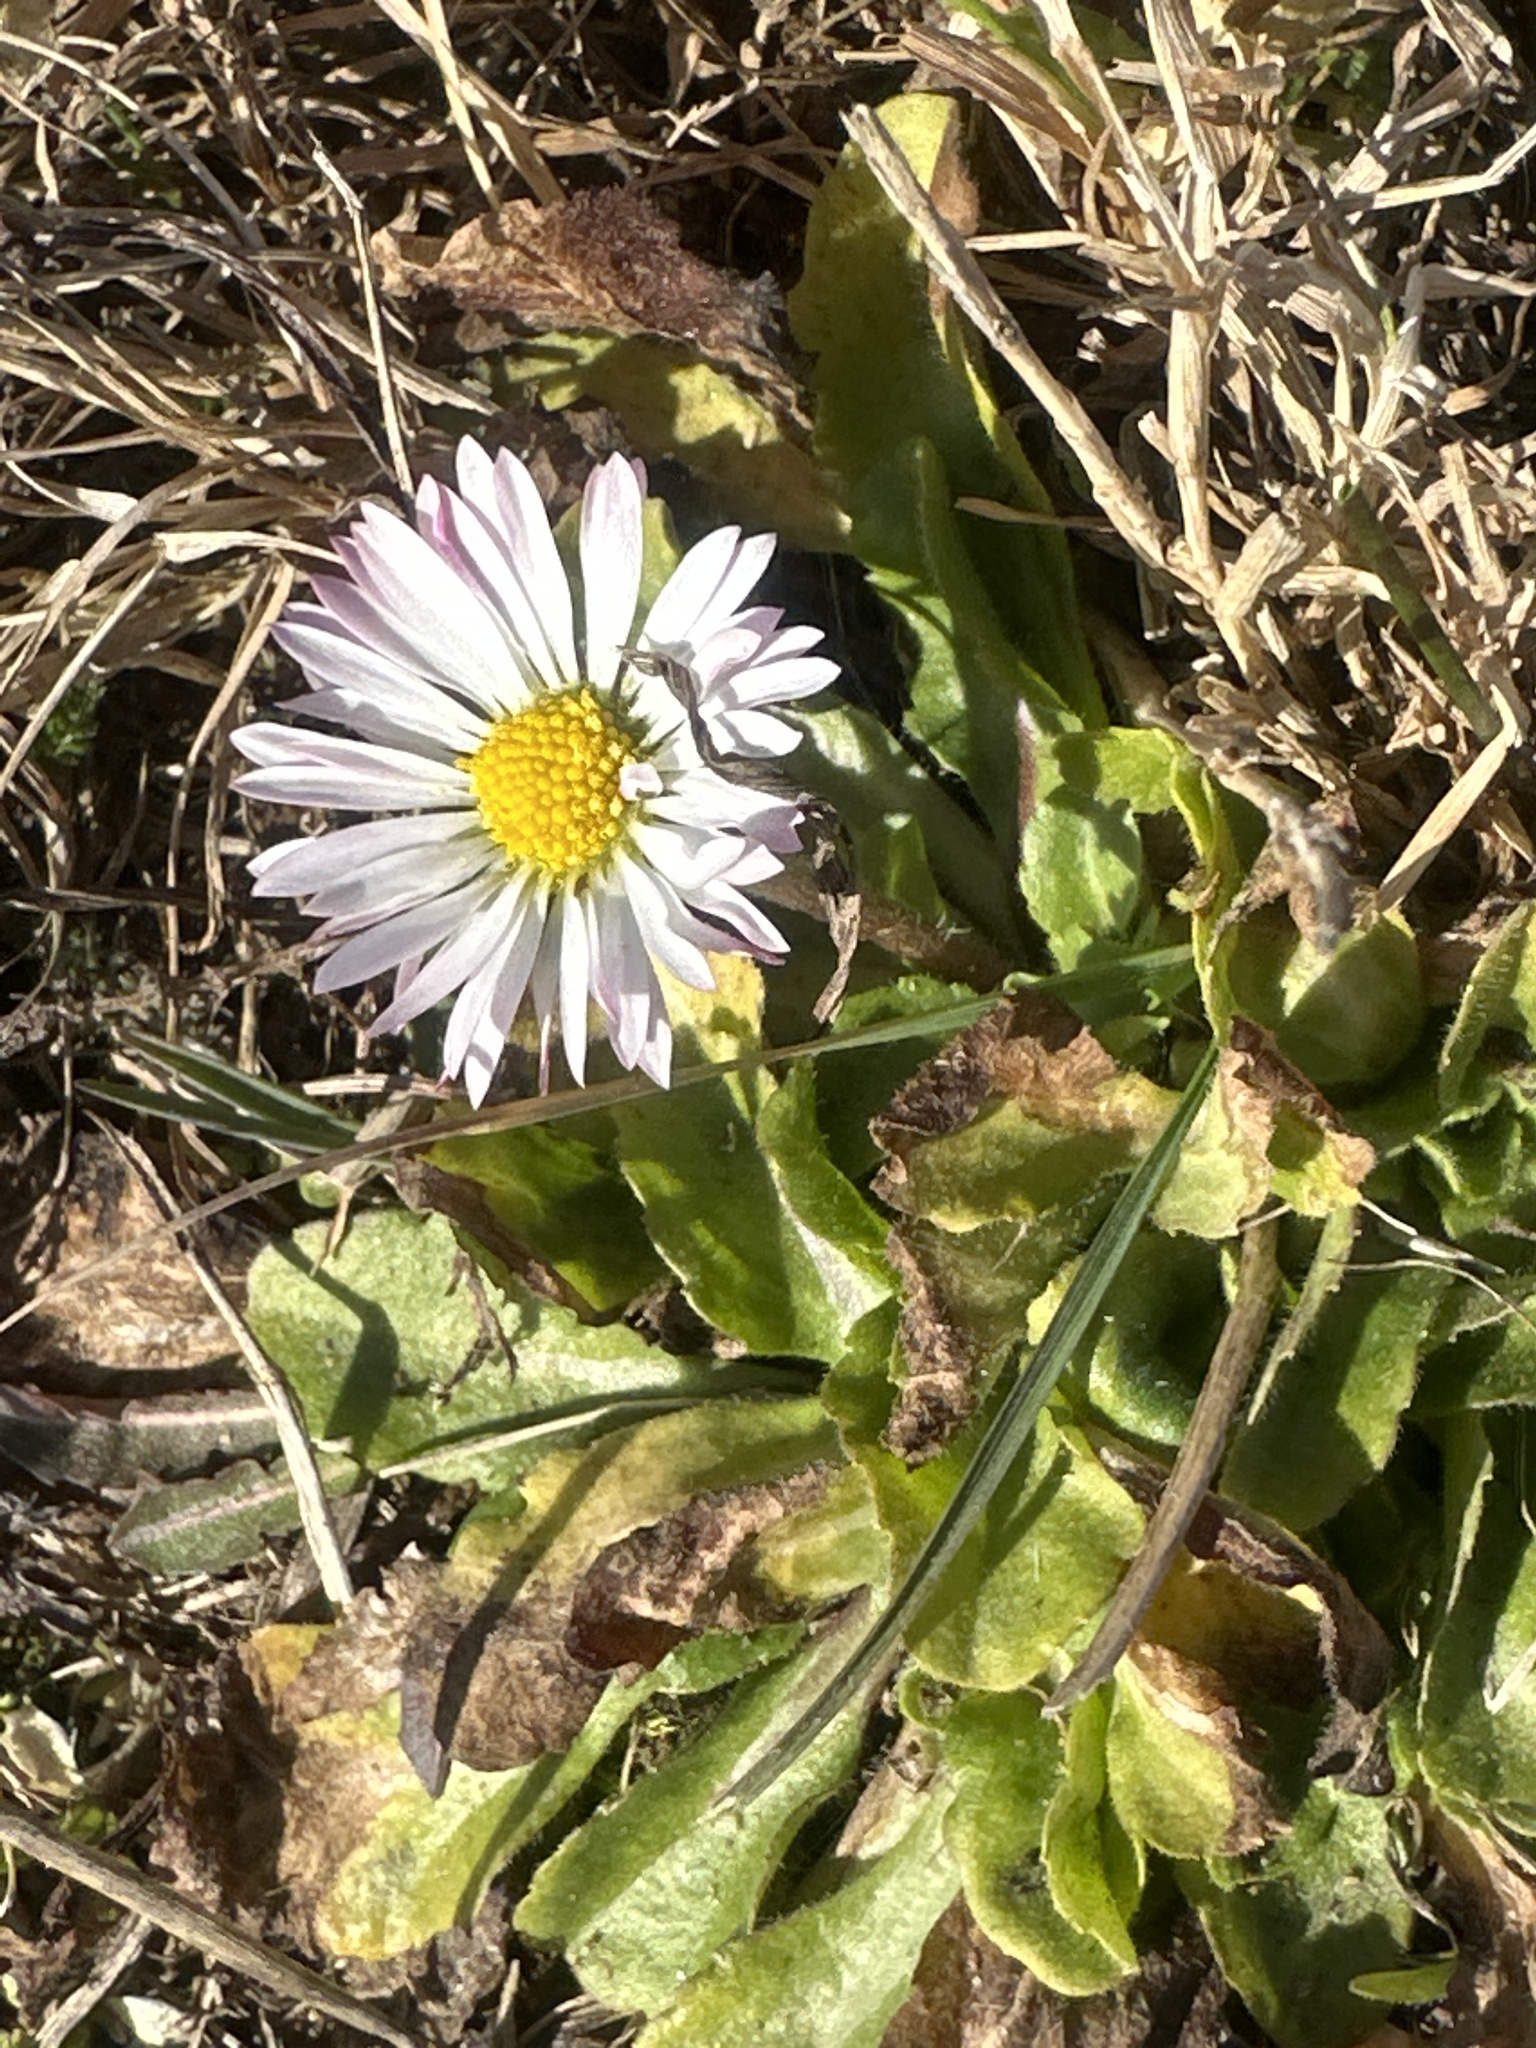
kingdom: Plantae
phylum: Tracheophyta
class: Magnoliopsida
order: Asterales
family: Asteraceae
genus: Bellis
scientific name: Bellis perennis
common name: Lawndaisy
